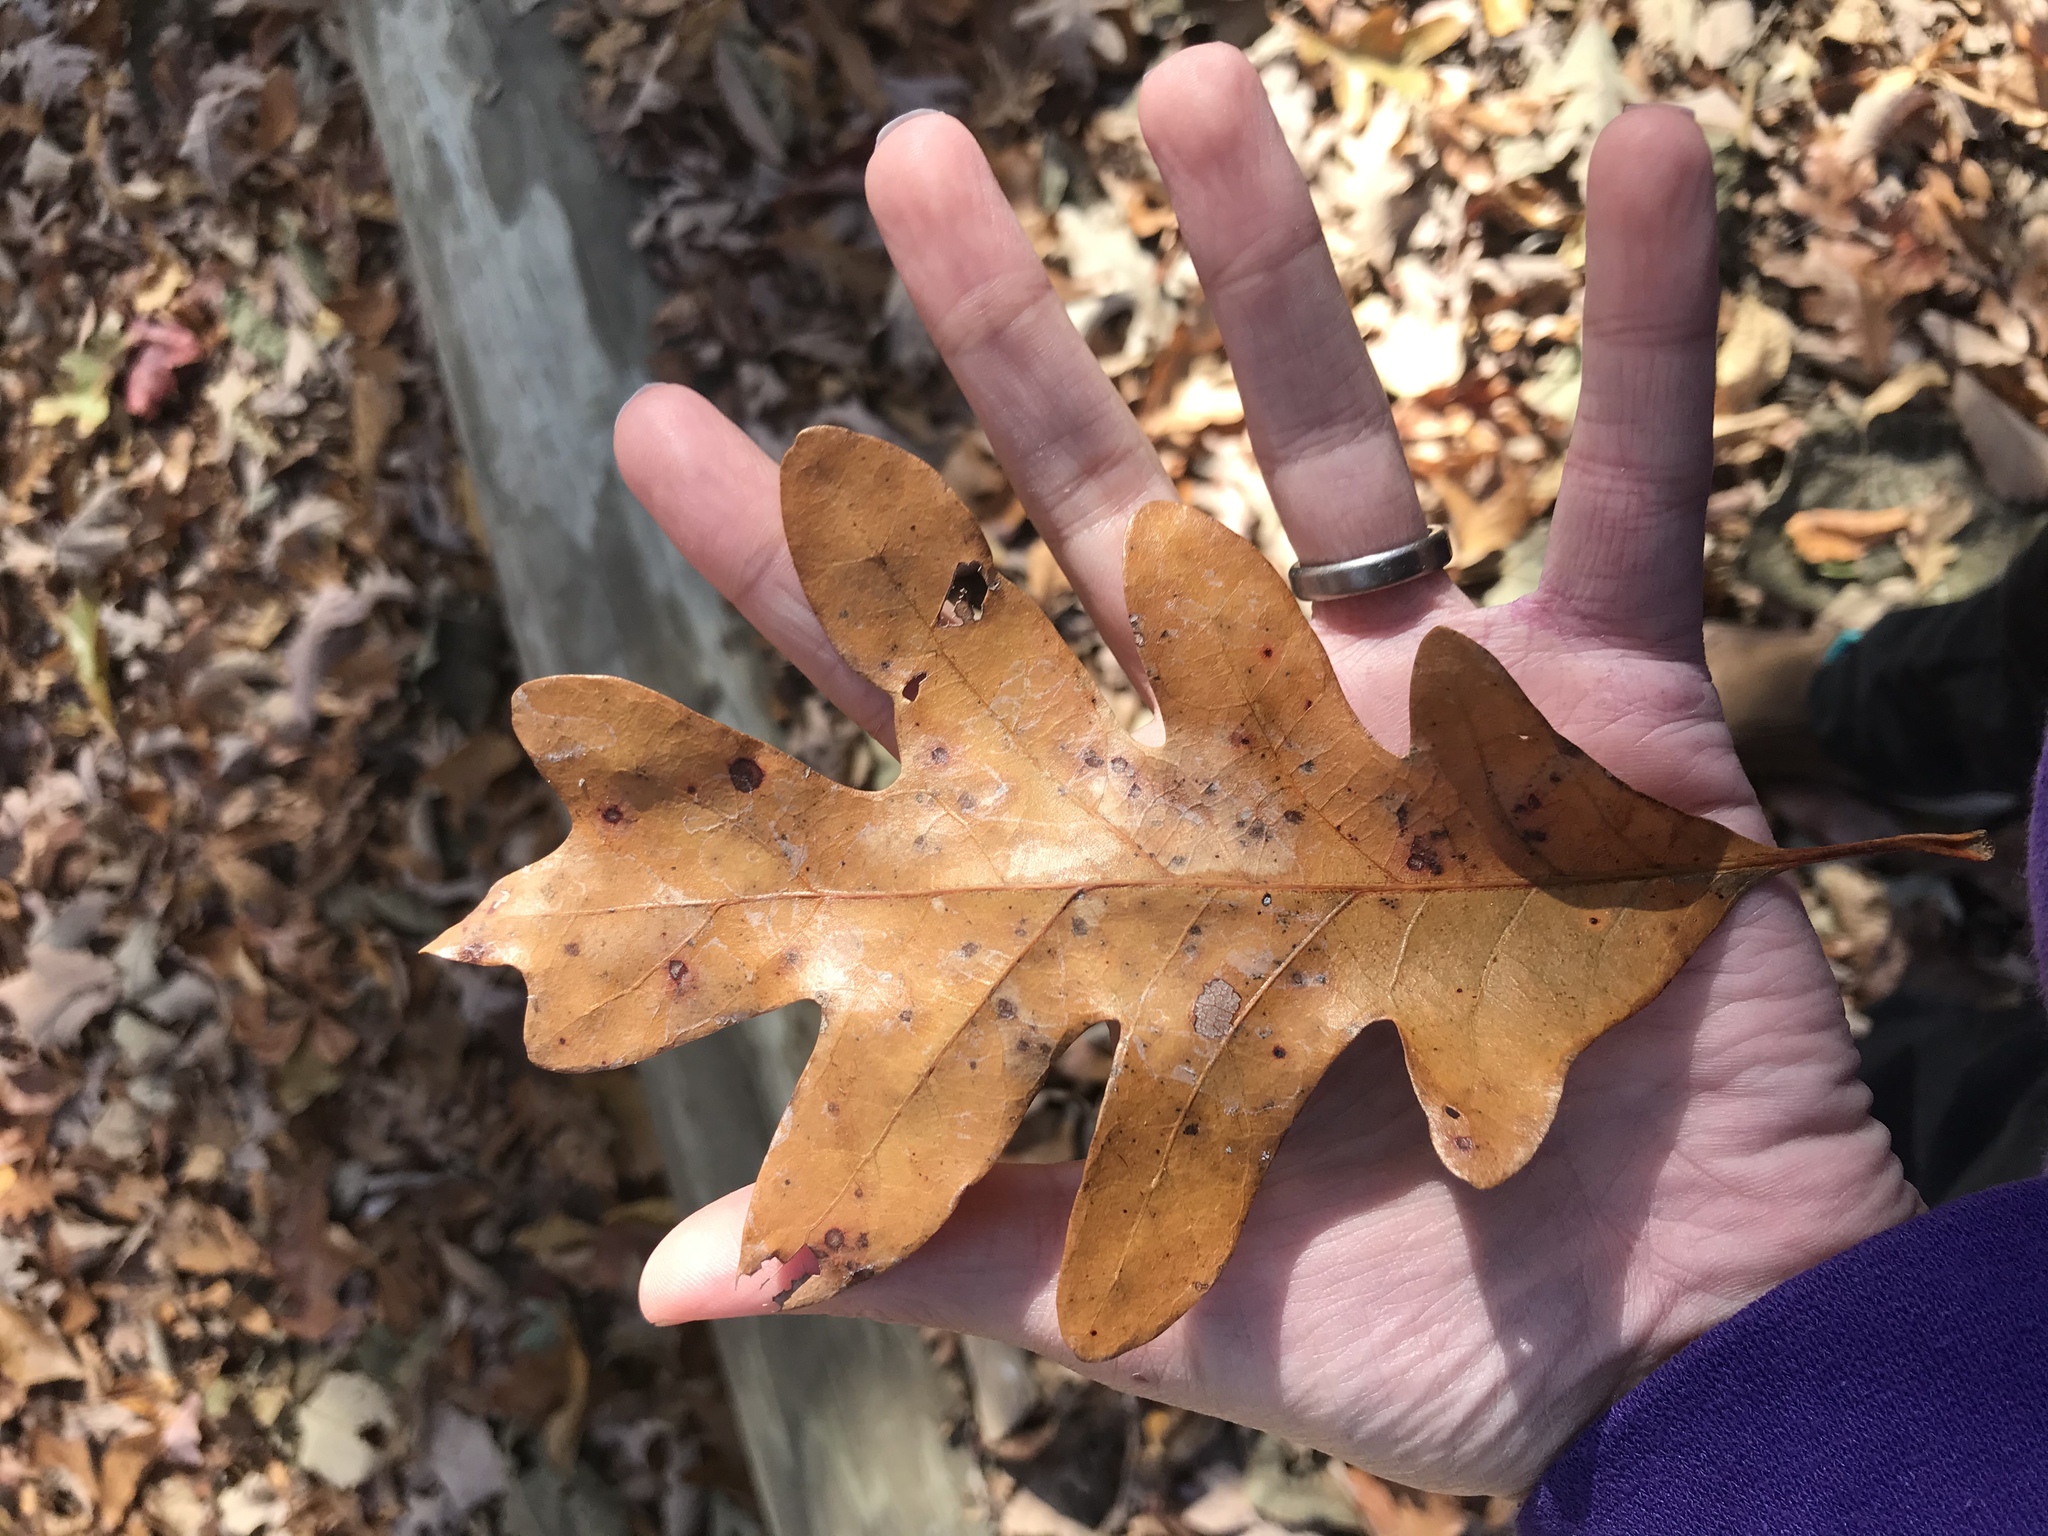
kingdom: Plantae
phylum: Tracheophyta
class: Magnoliopsida
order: Fagales
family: Fagaceae
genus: Quercus
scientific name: Quercus alba
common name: White oak
